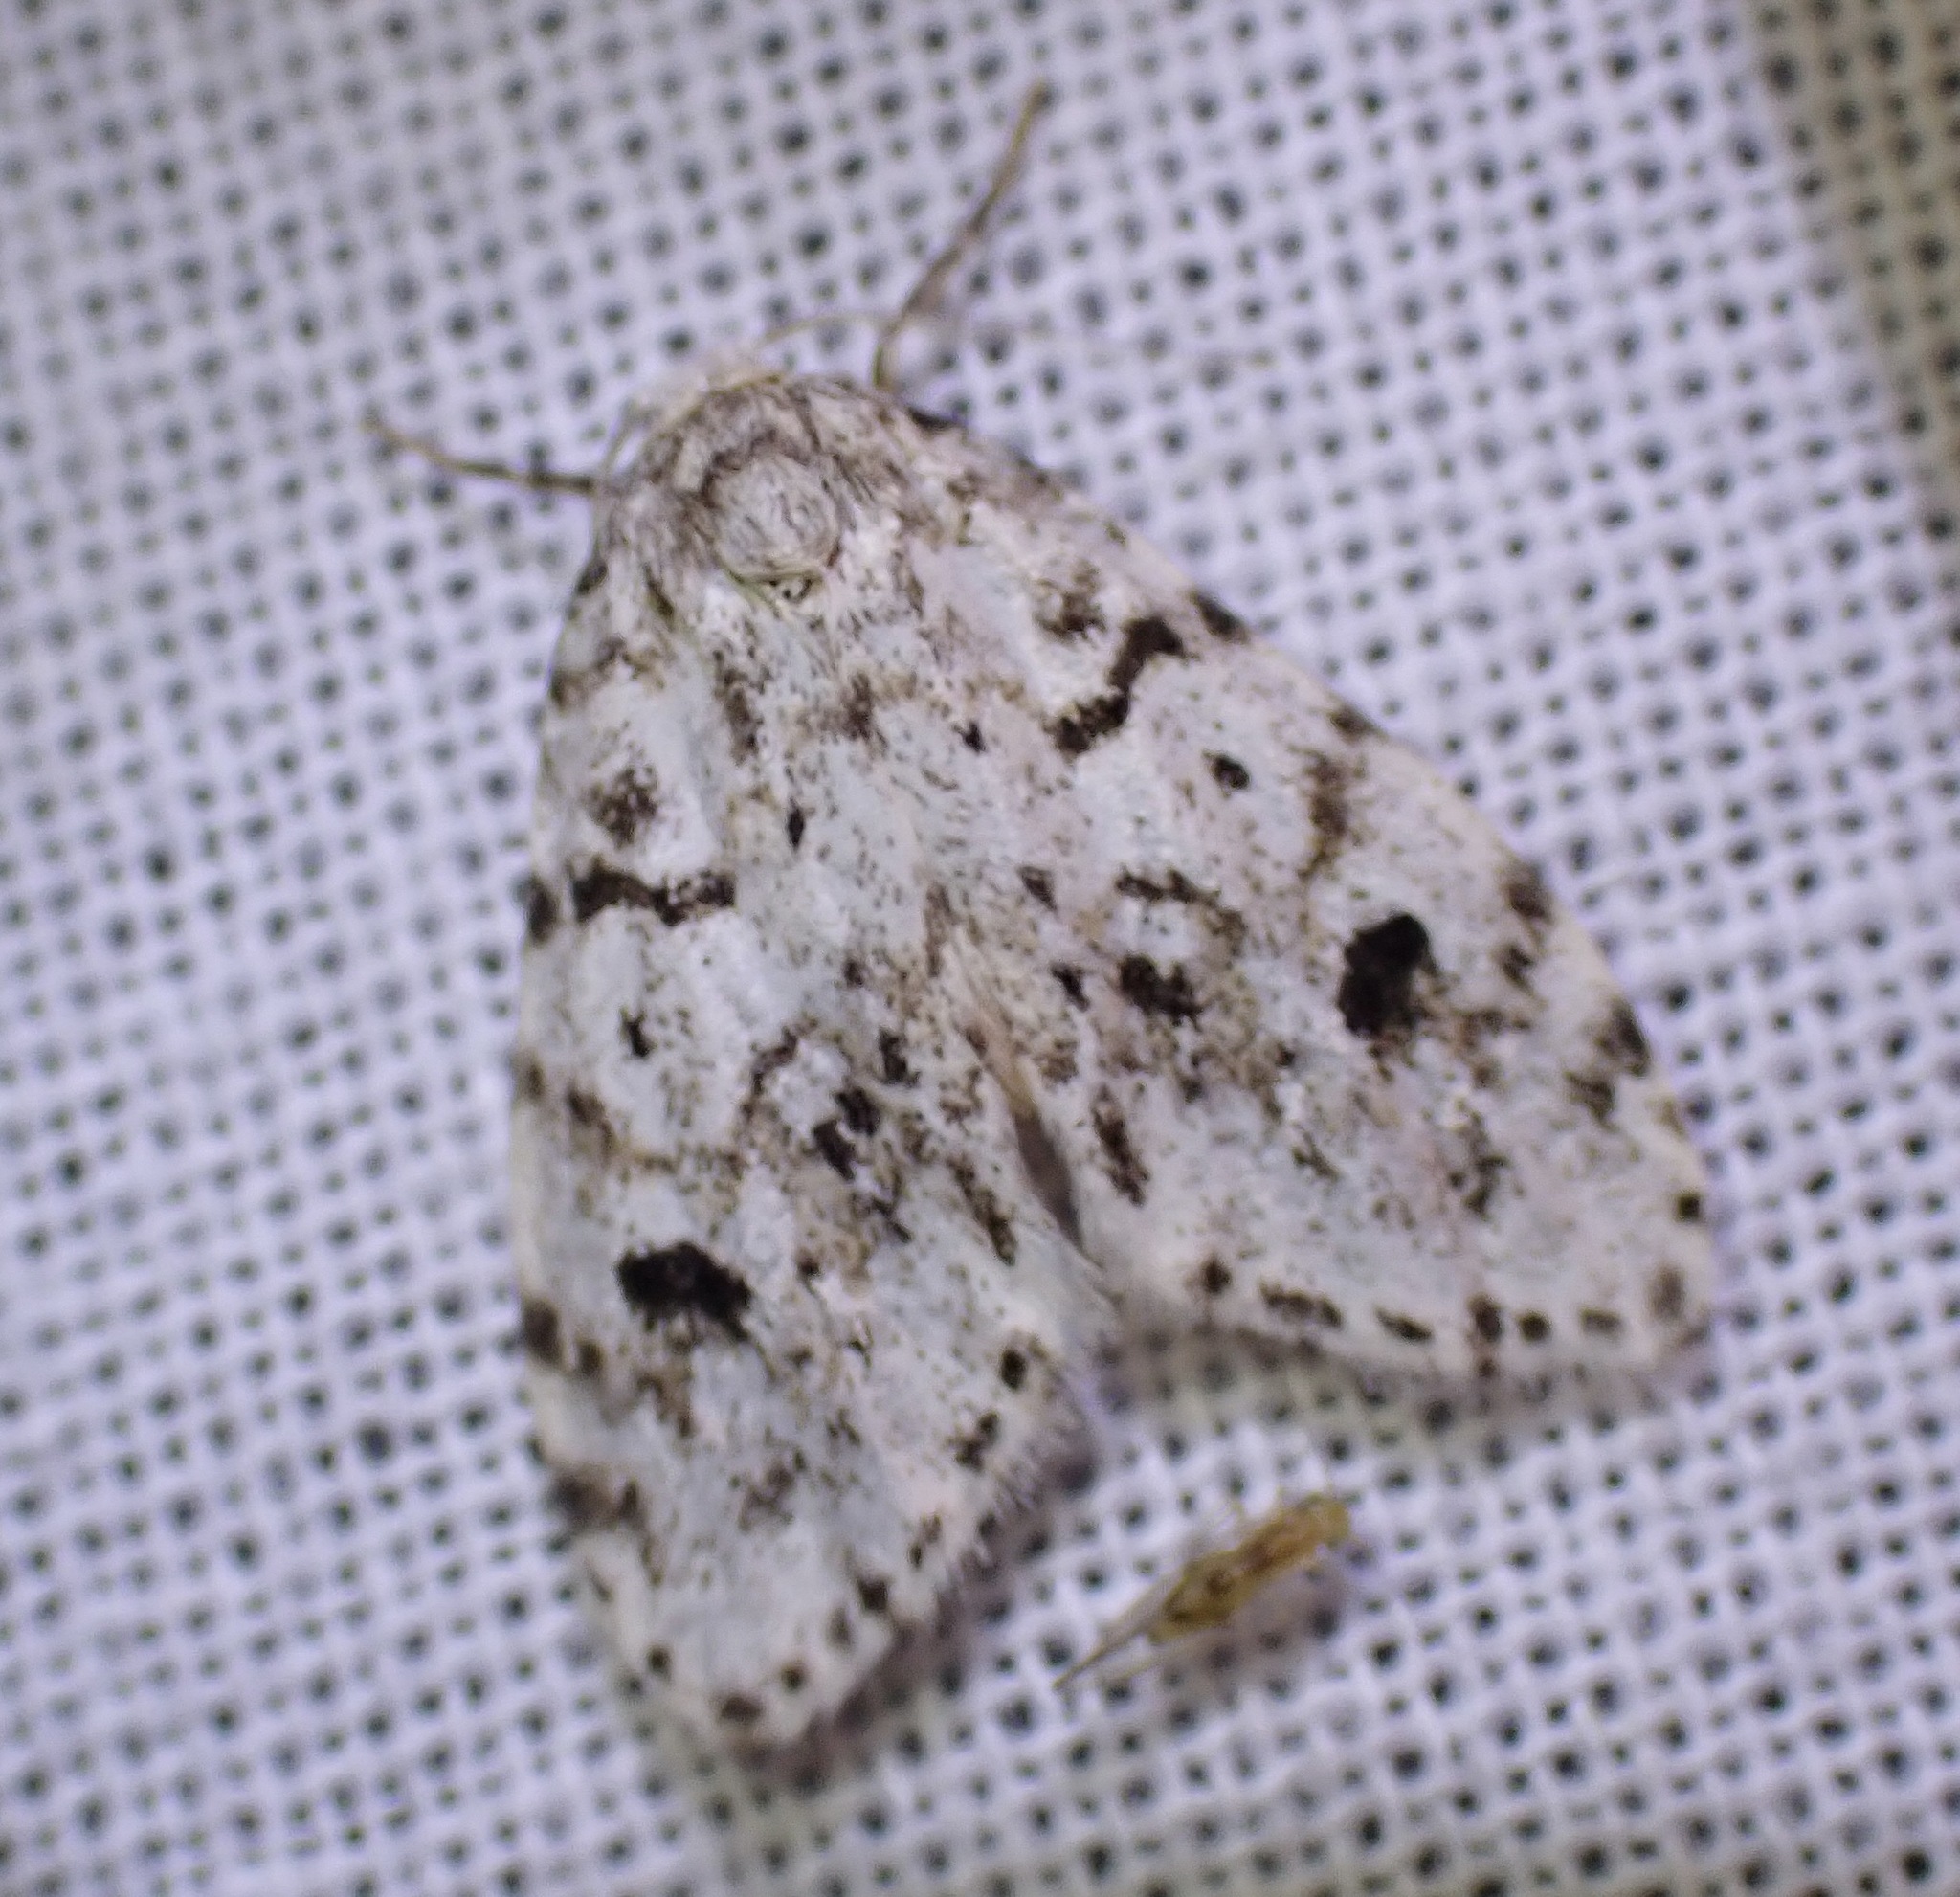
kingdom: Animalia
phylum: Arthropoda
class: Insecta
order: Lepidoptera
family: Erebidae
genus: Clemensia
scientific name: Clemensia umbrata
